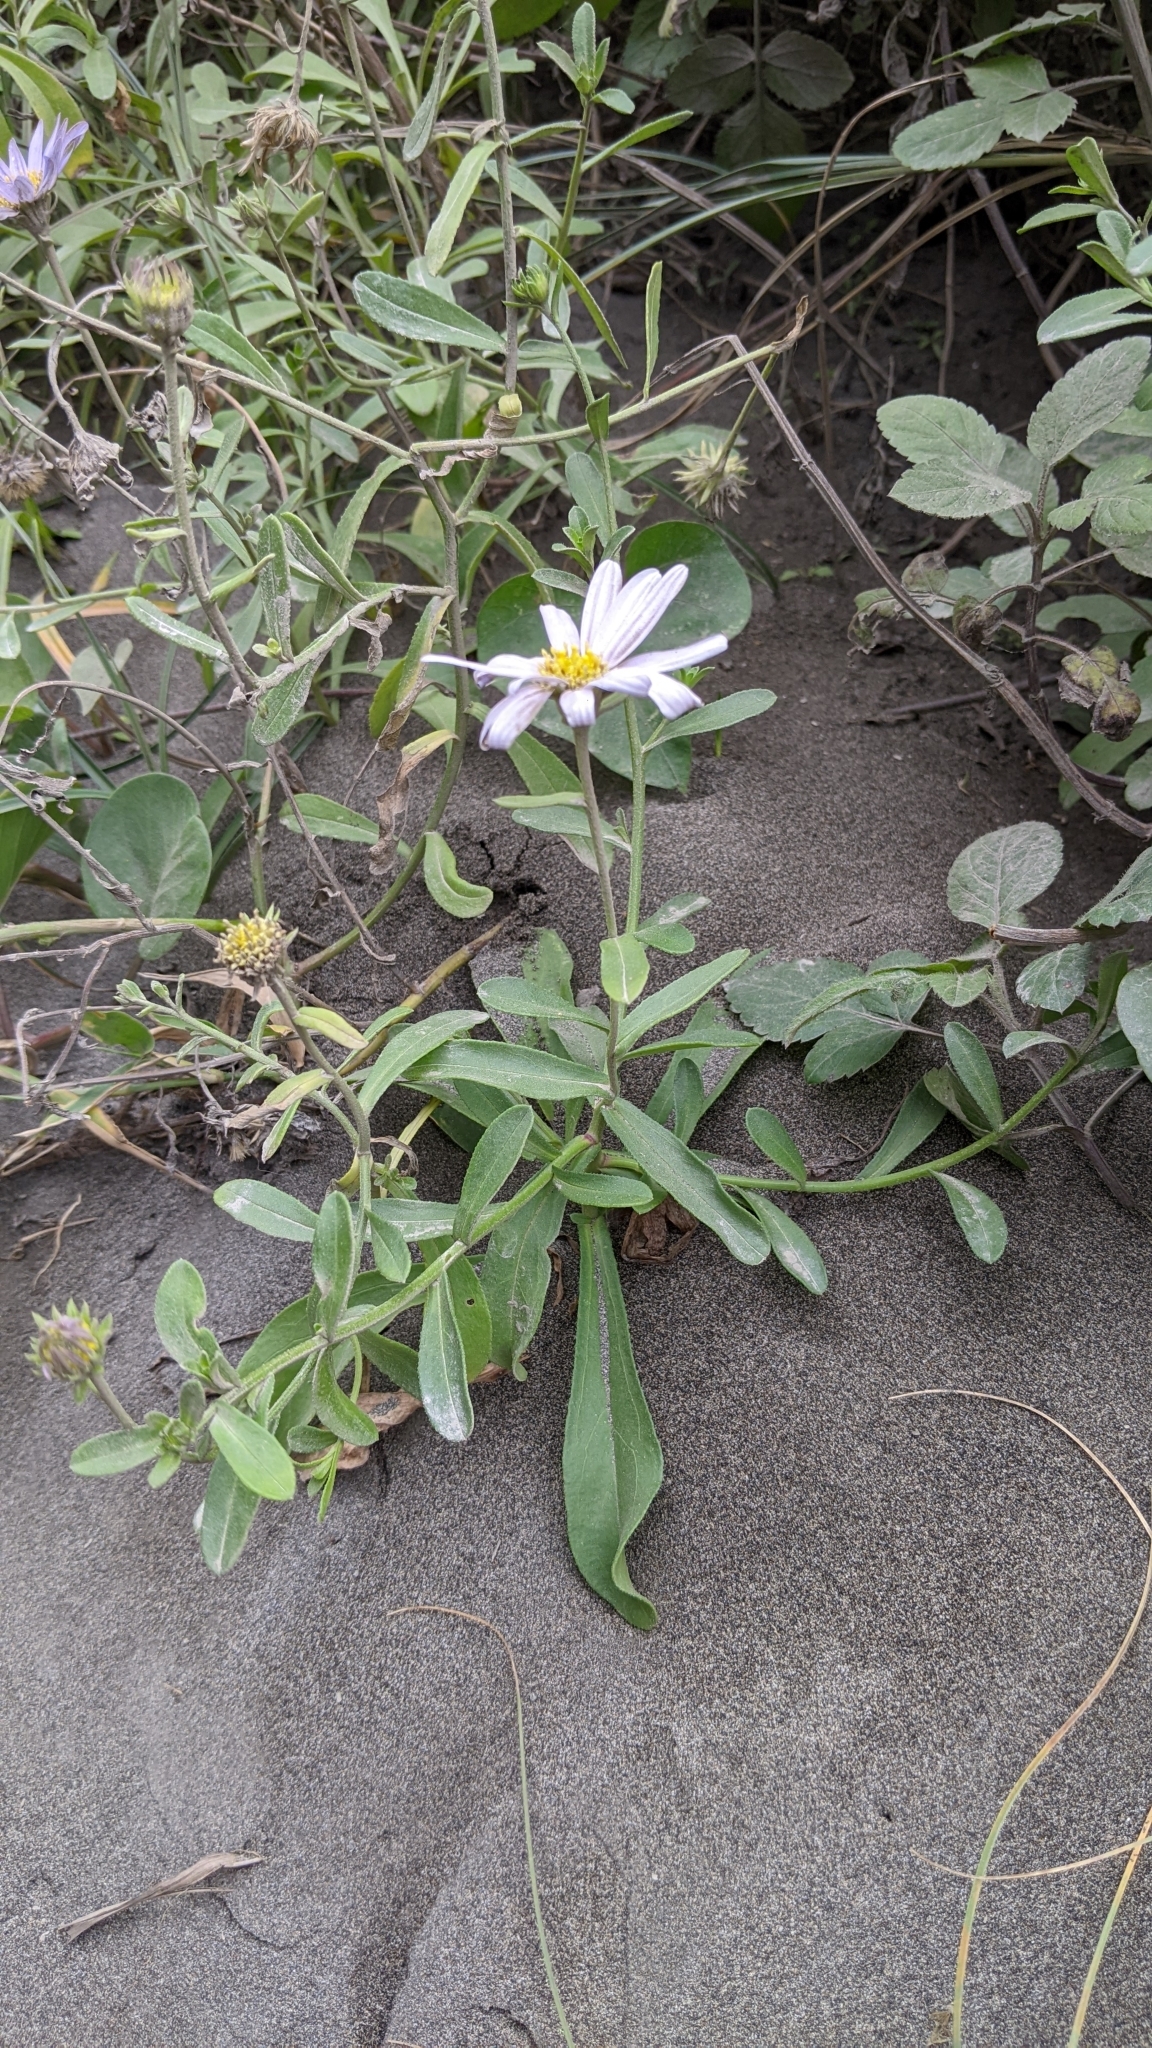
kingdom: Plantae
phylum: Tracheophyta
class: Magnoliopsida
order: Asterales
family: Asteraceae
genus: Heteropappus
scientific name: Heteropappus oldhamii
